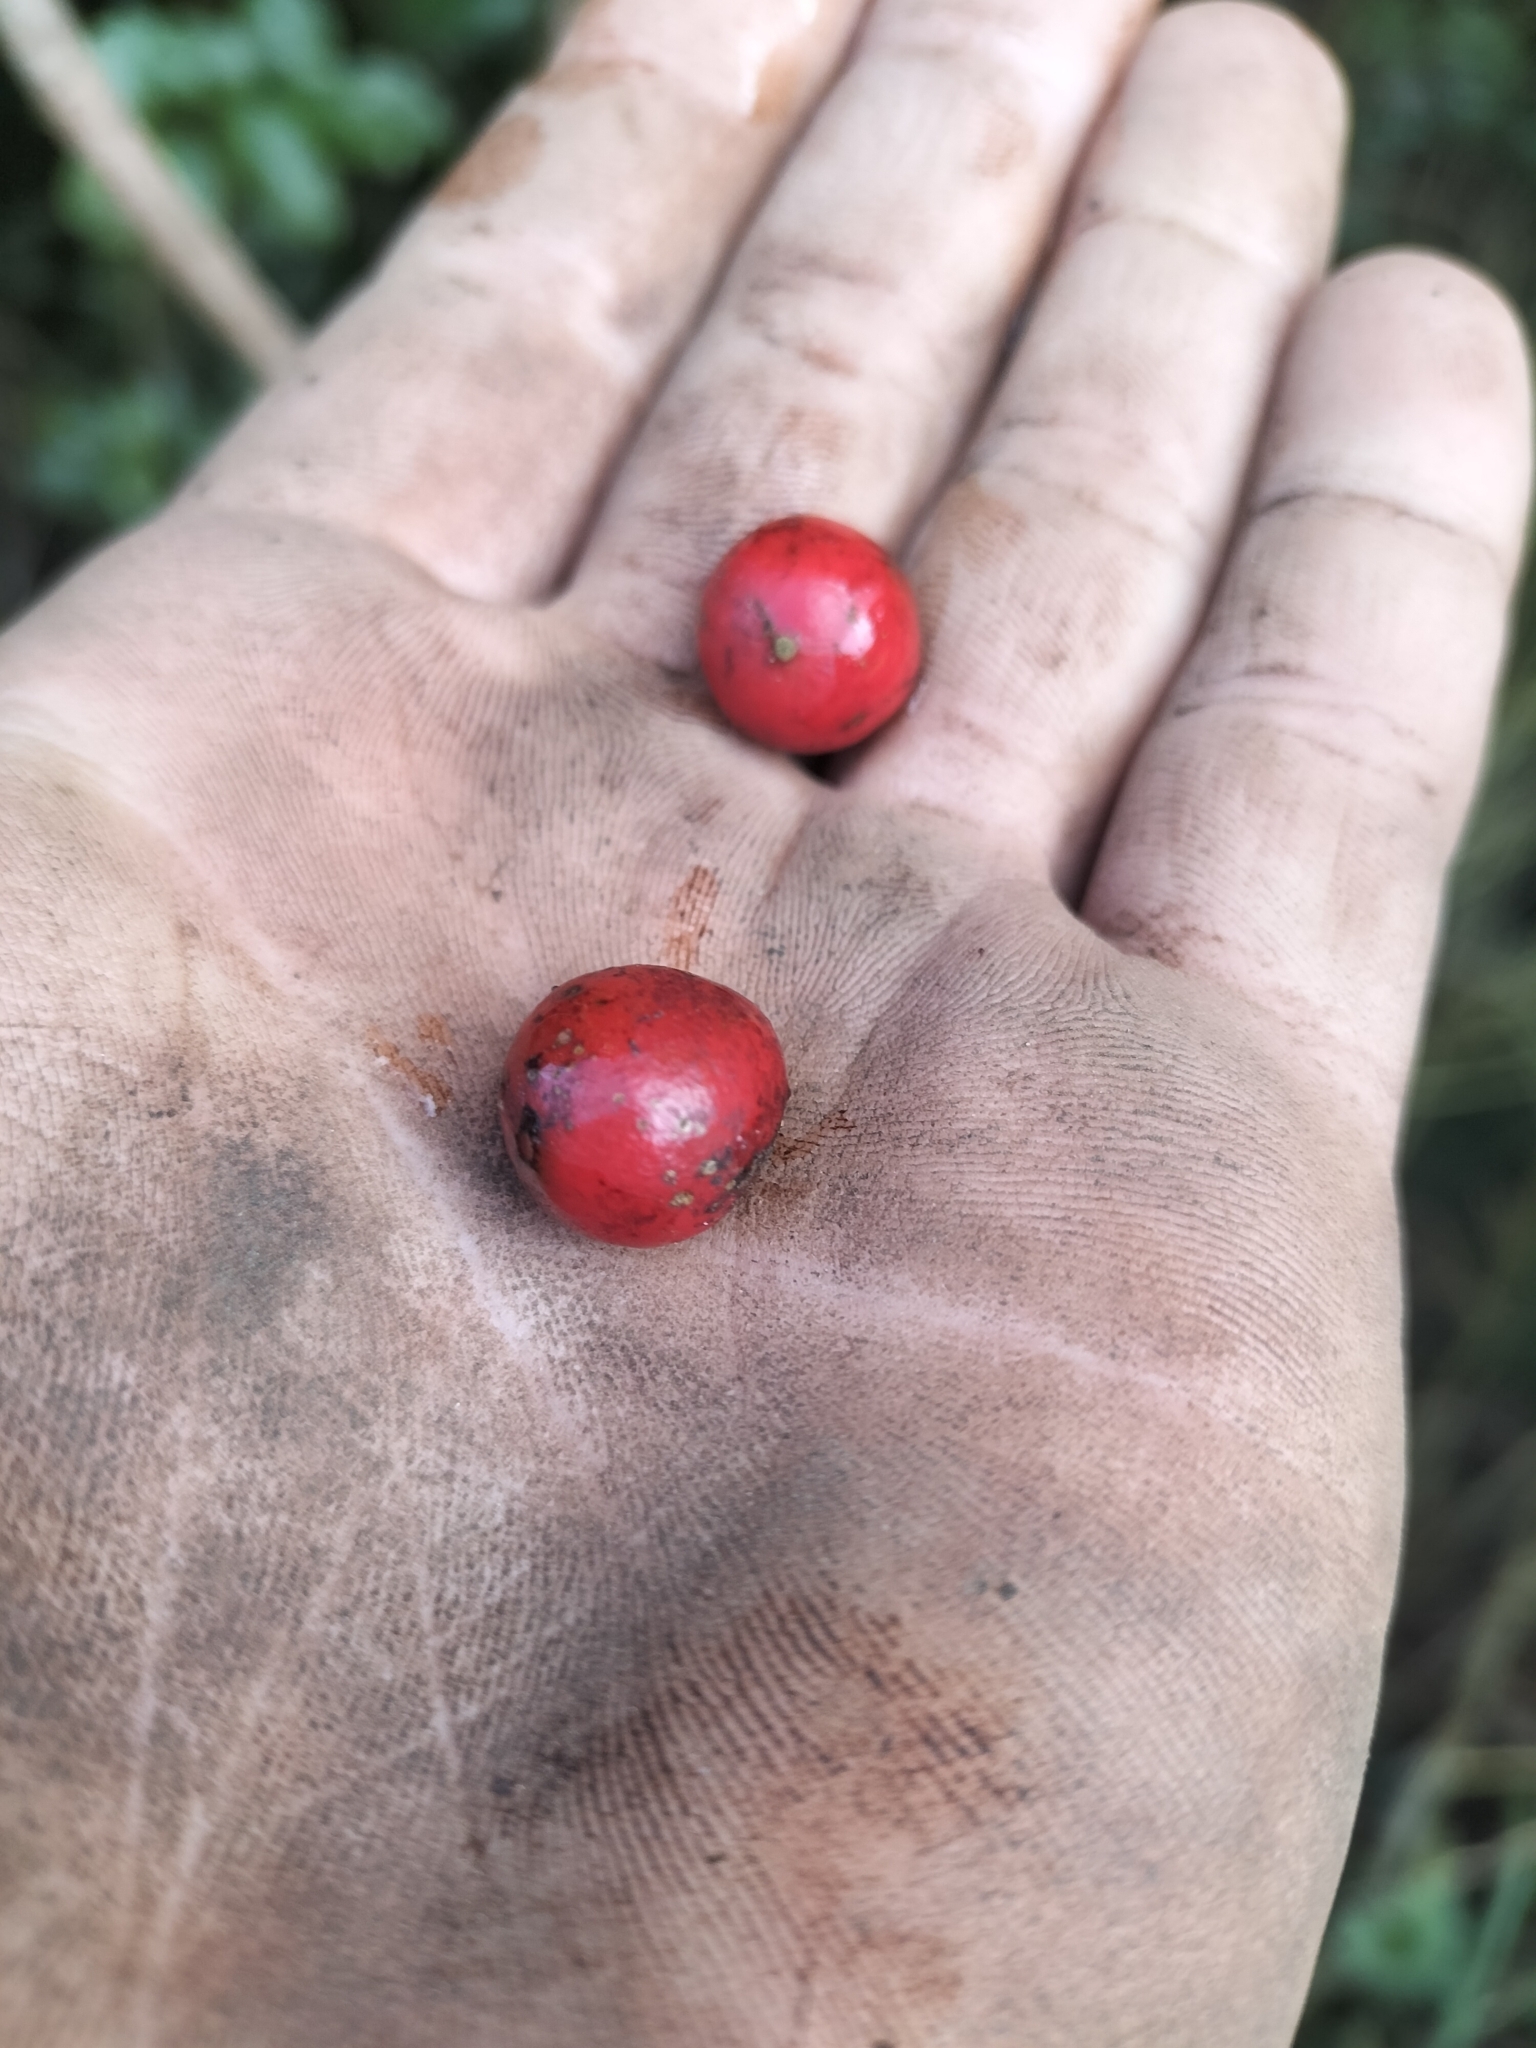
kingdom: Plantae
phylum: Tracheophyta
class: Liliopsida
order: Liliales
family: Ripogonaceae
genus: Ripogonum
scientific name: Ripogonum scandens
